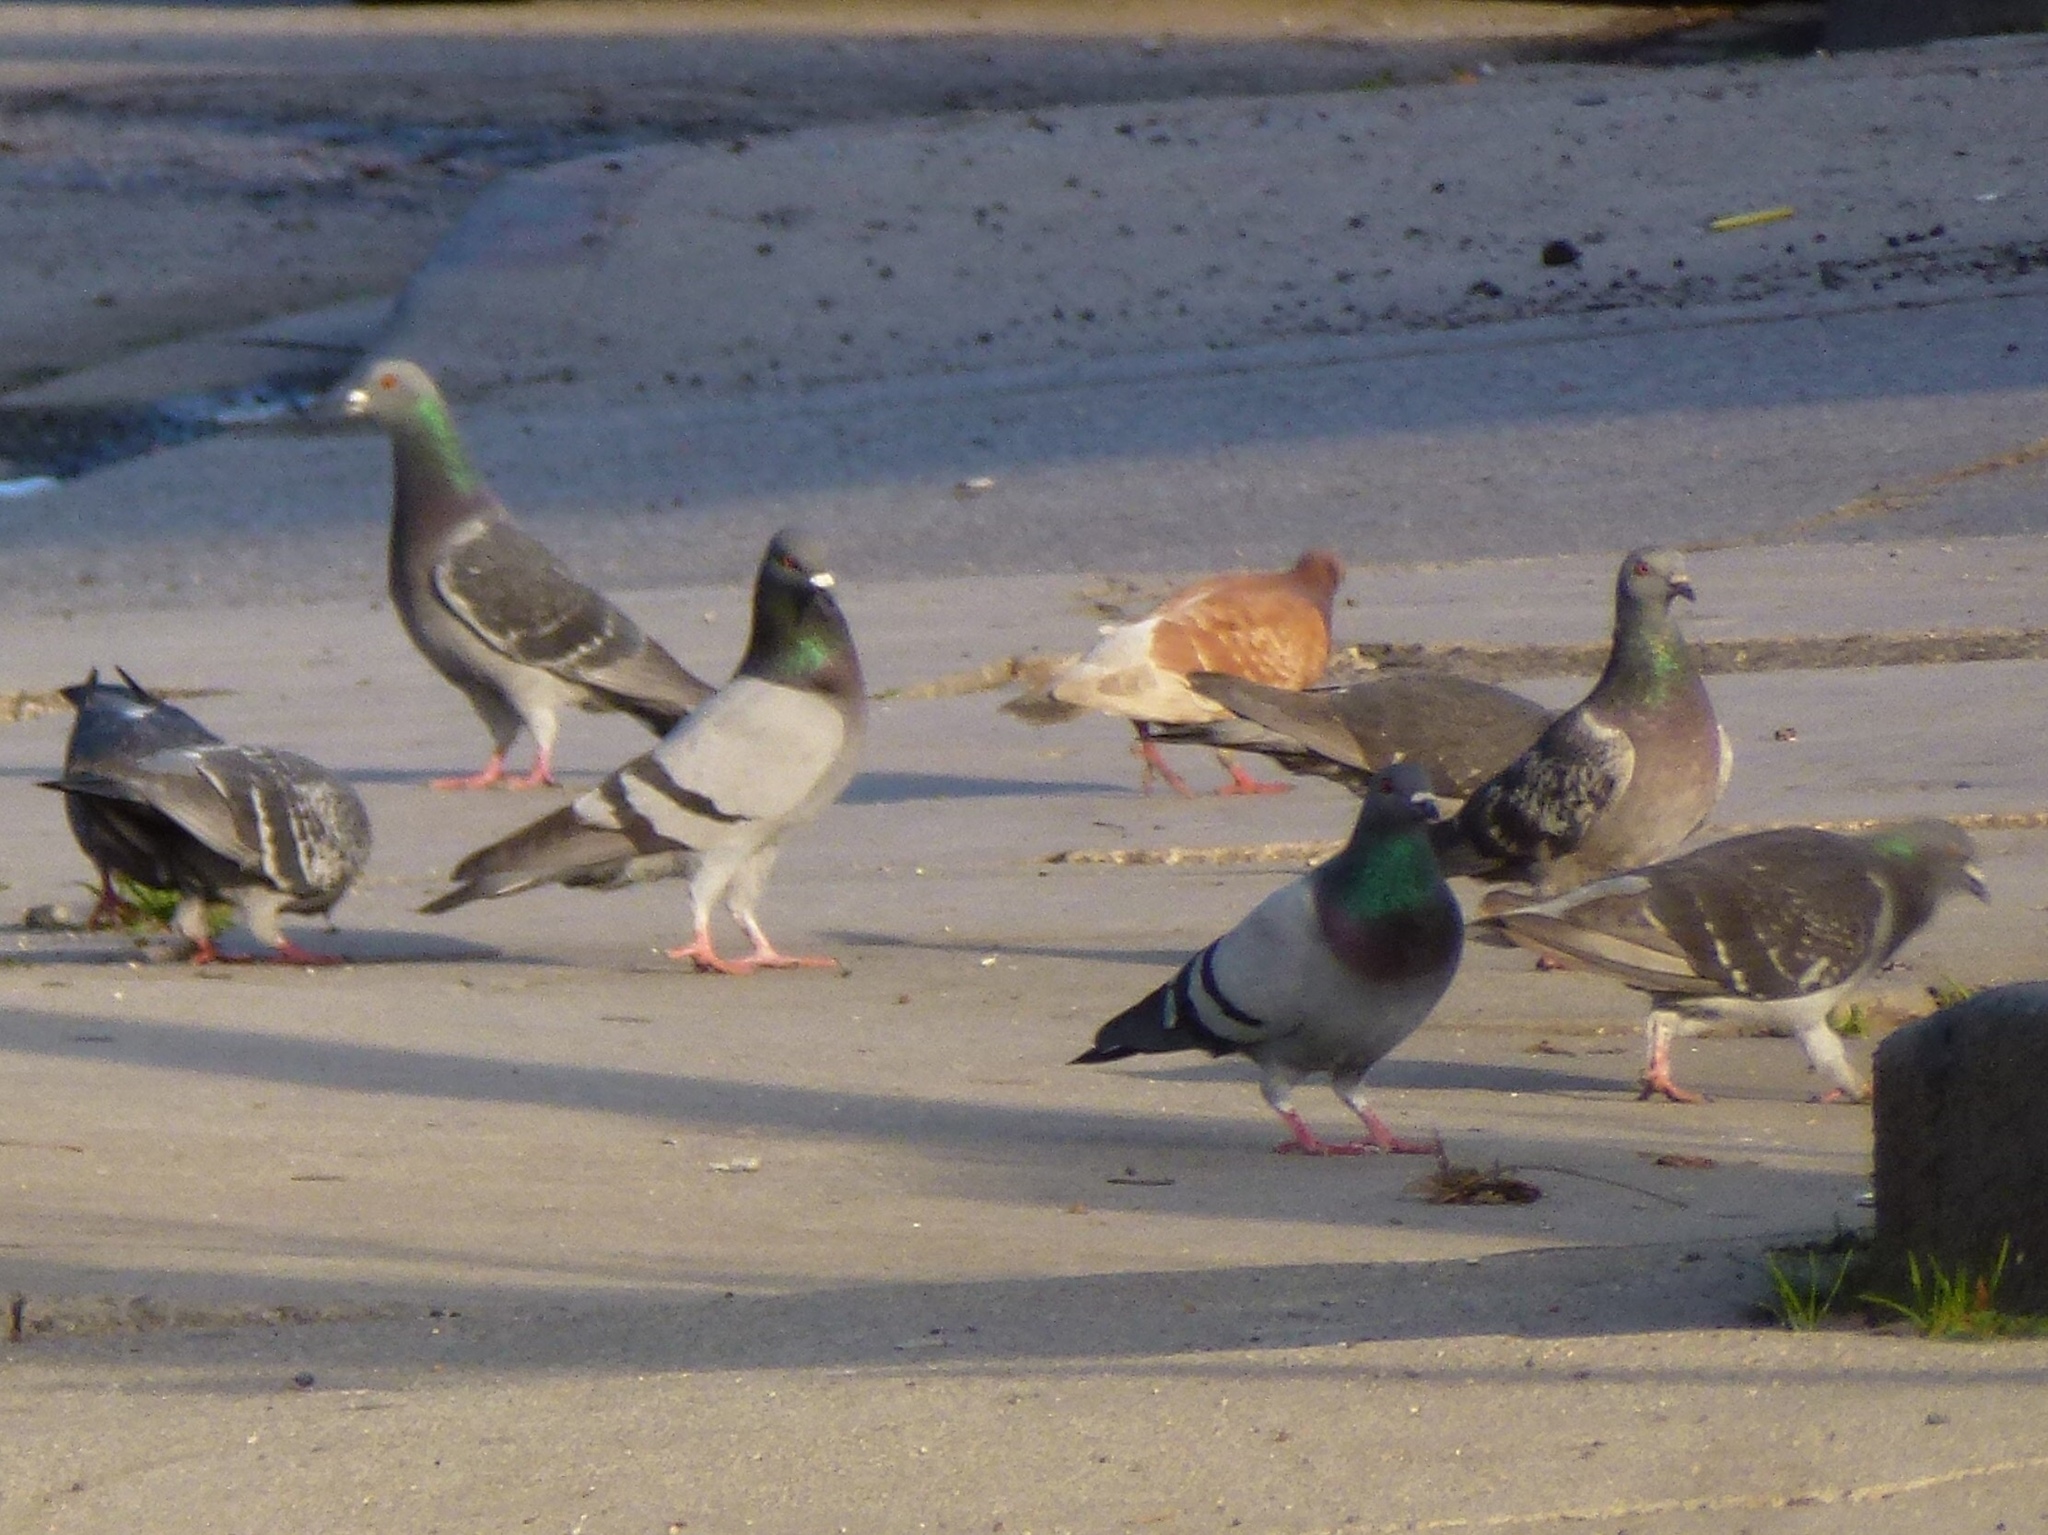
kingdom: Animalia
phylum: Chordata
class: Aves
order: Columbiformes
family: Columbidae
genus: Columba
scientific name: Columba livia
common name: Rock pigeon
